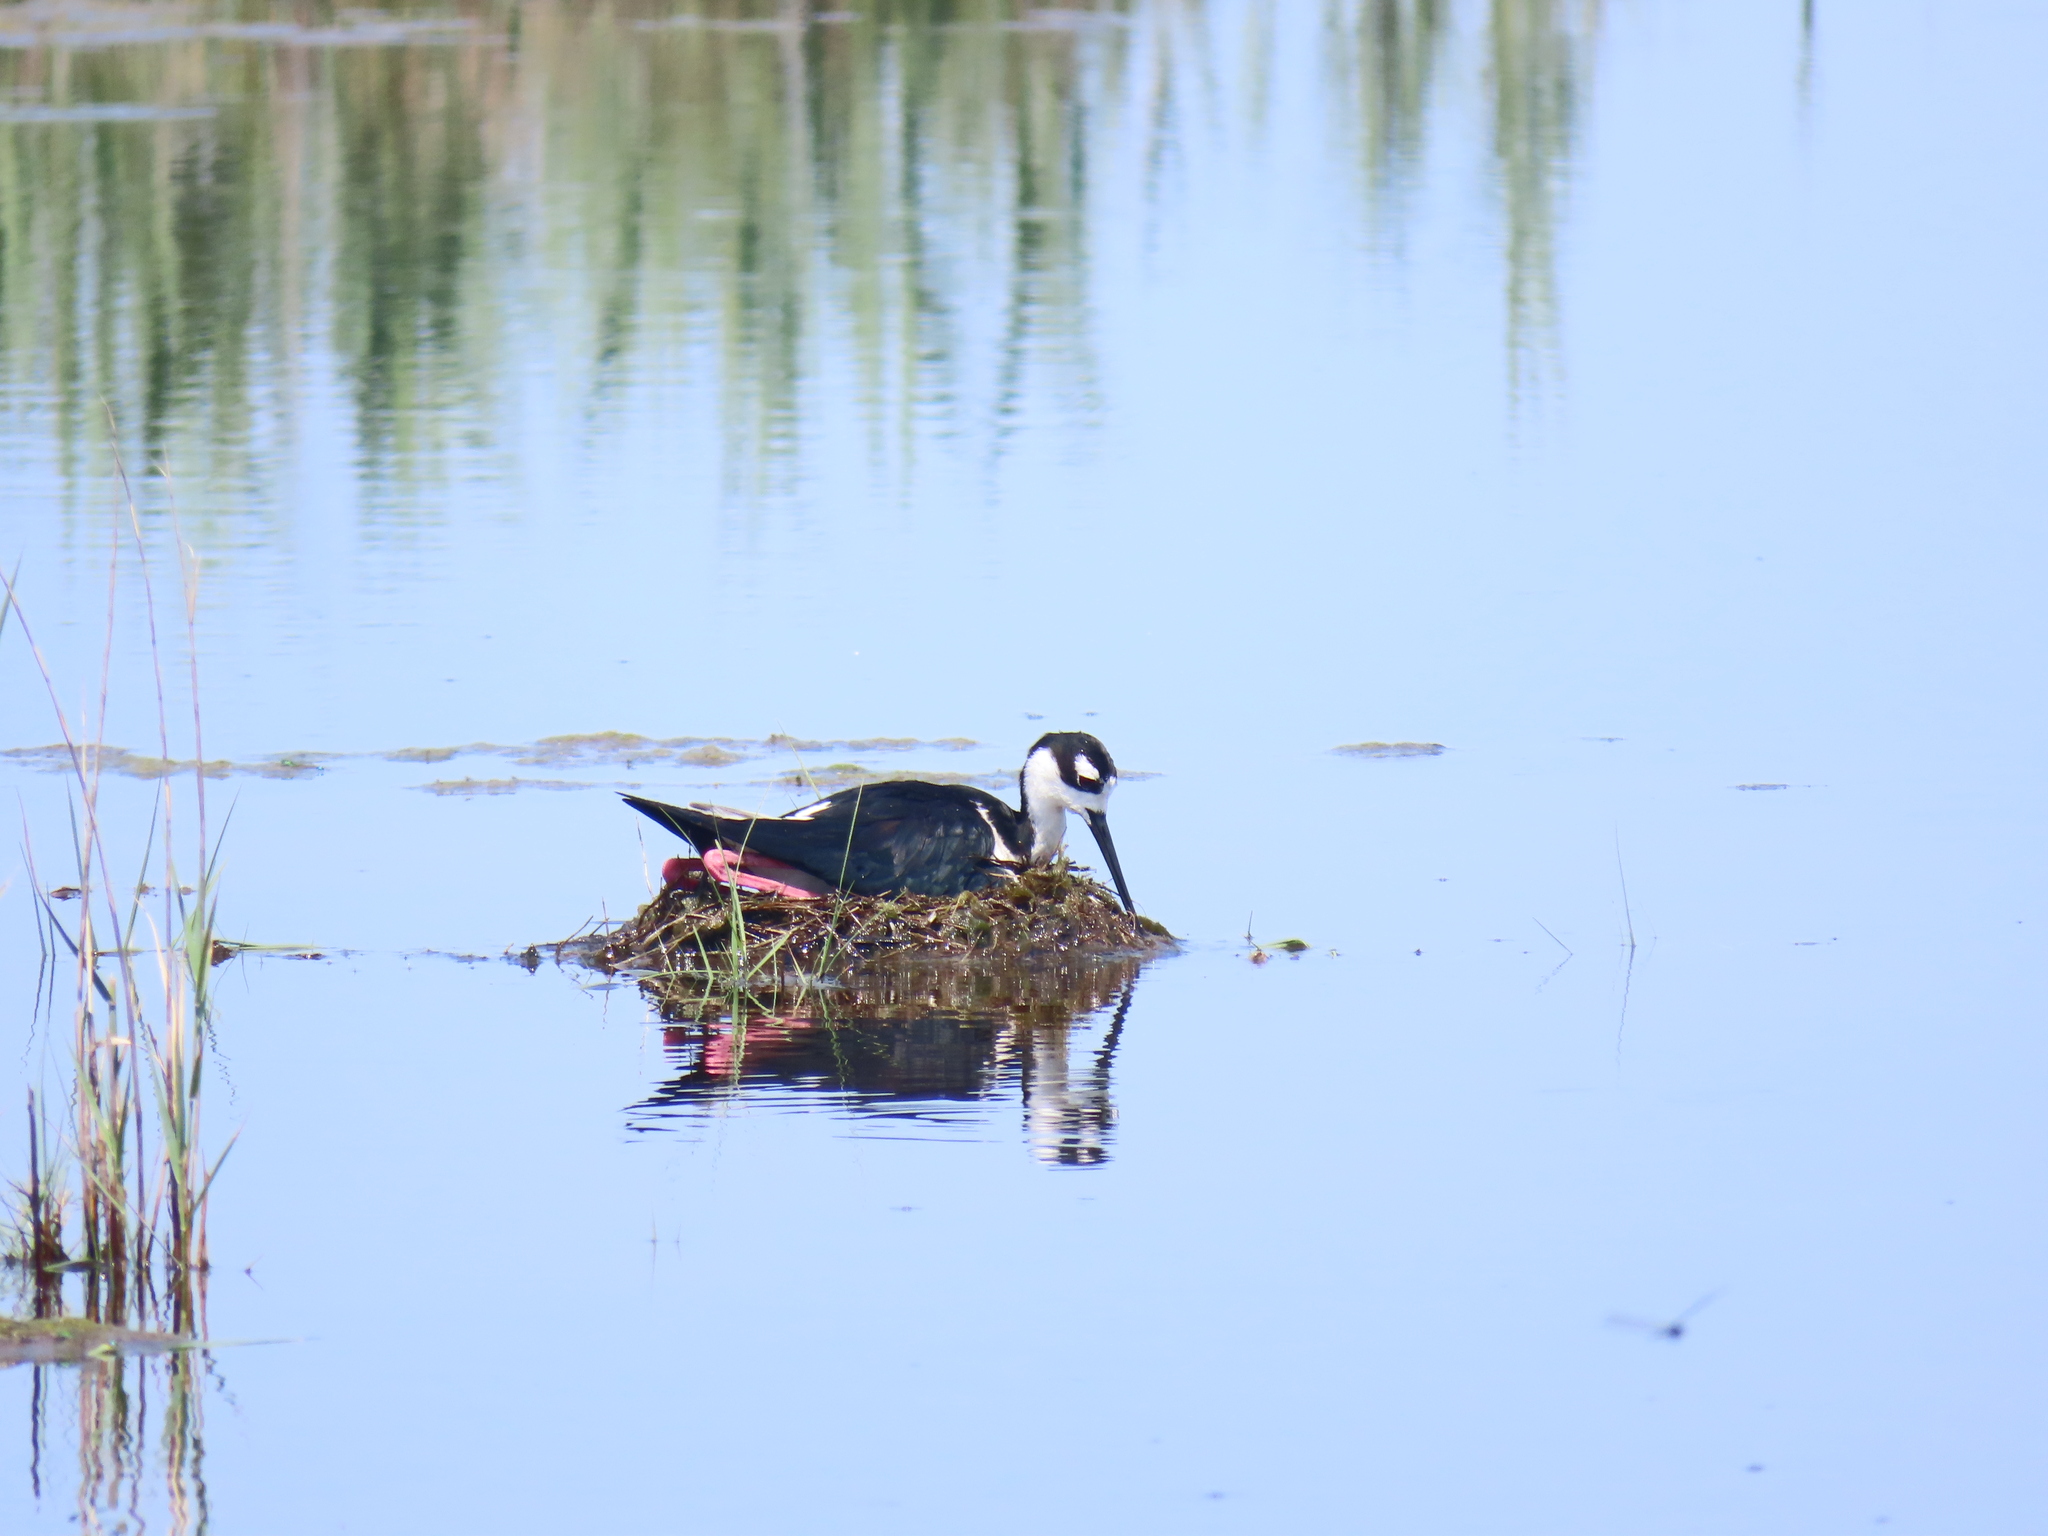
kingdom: Animalia
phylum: Chordata
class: Aves
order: Charadriiformes
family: Recurvirostridae
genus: Himantopus
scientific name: Himantopus mexicanus
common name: Black-necked stilt
